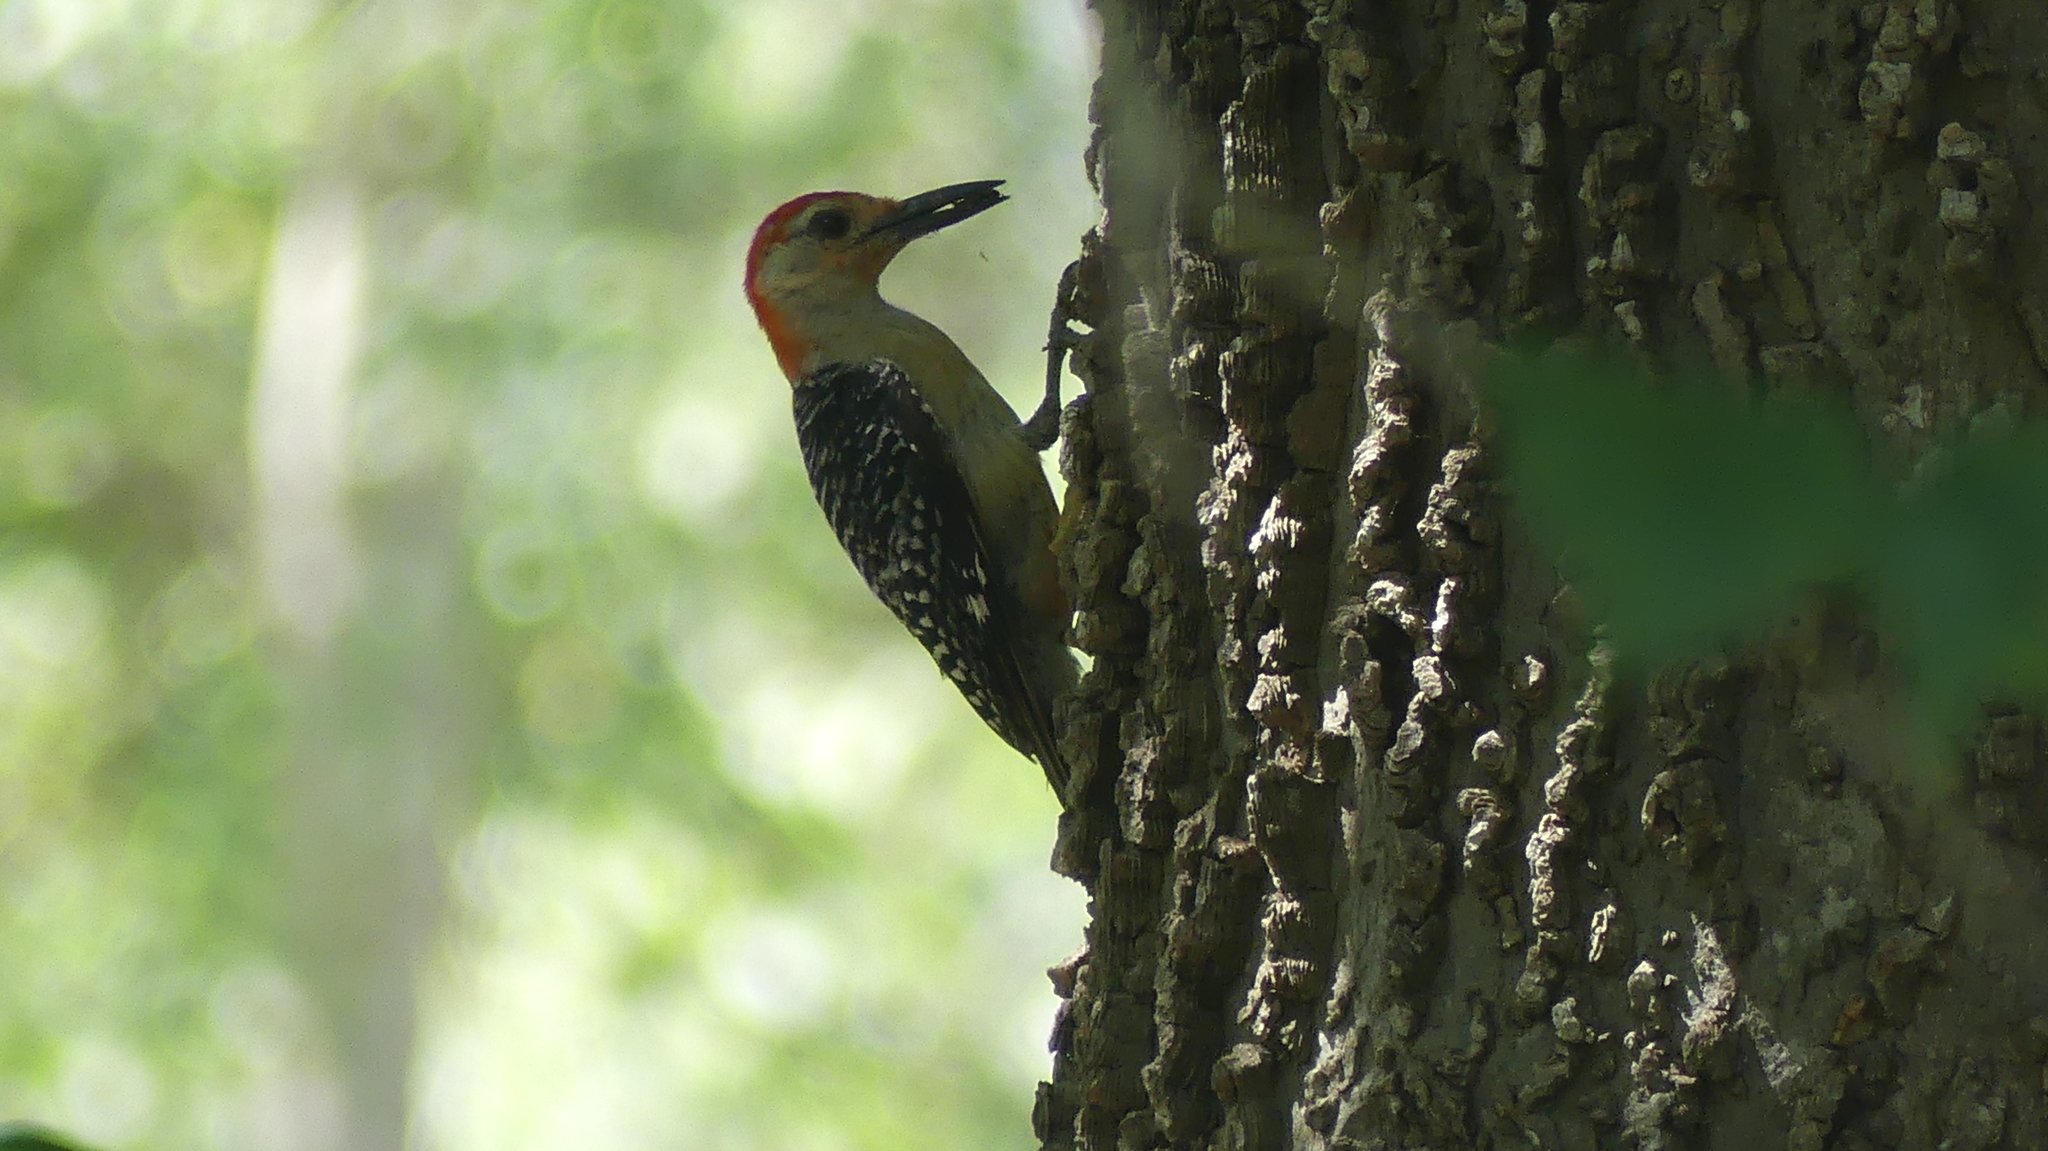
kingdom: Animalia
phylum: Chordata
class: Aves
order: Piciformes
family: Picidae
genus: Melanerpes
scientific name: Melanerpes carolinus
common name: Red-bellied woodpecker
